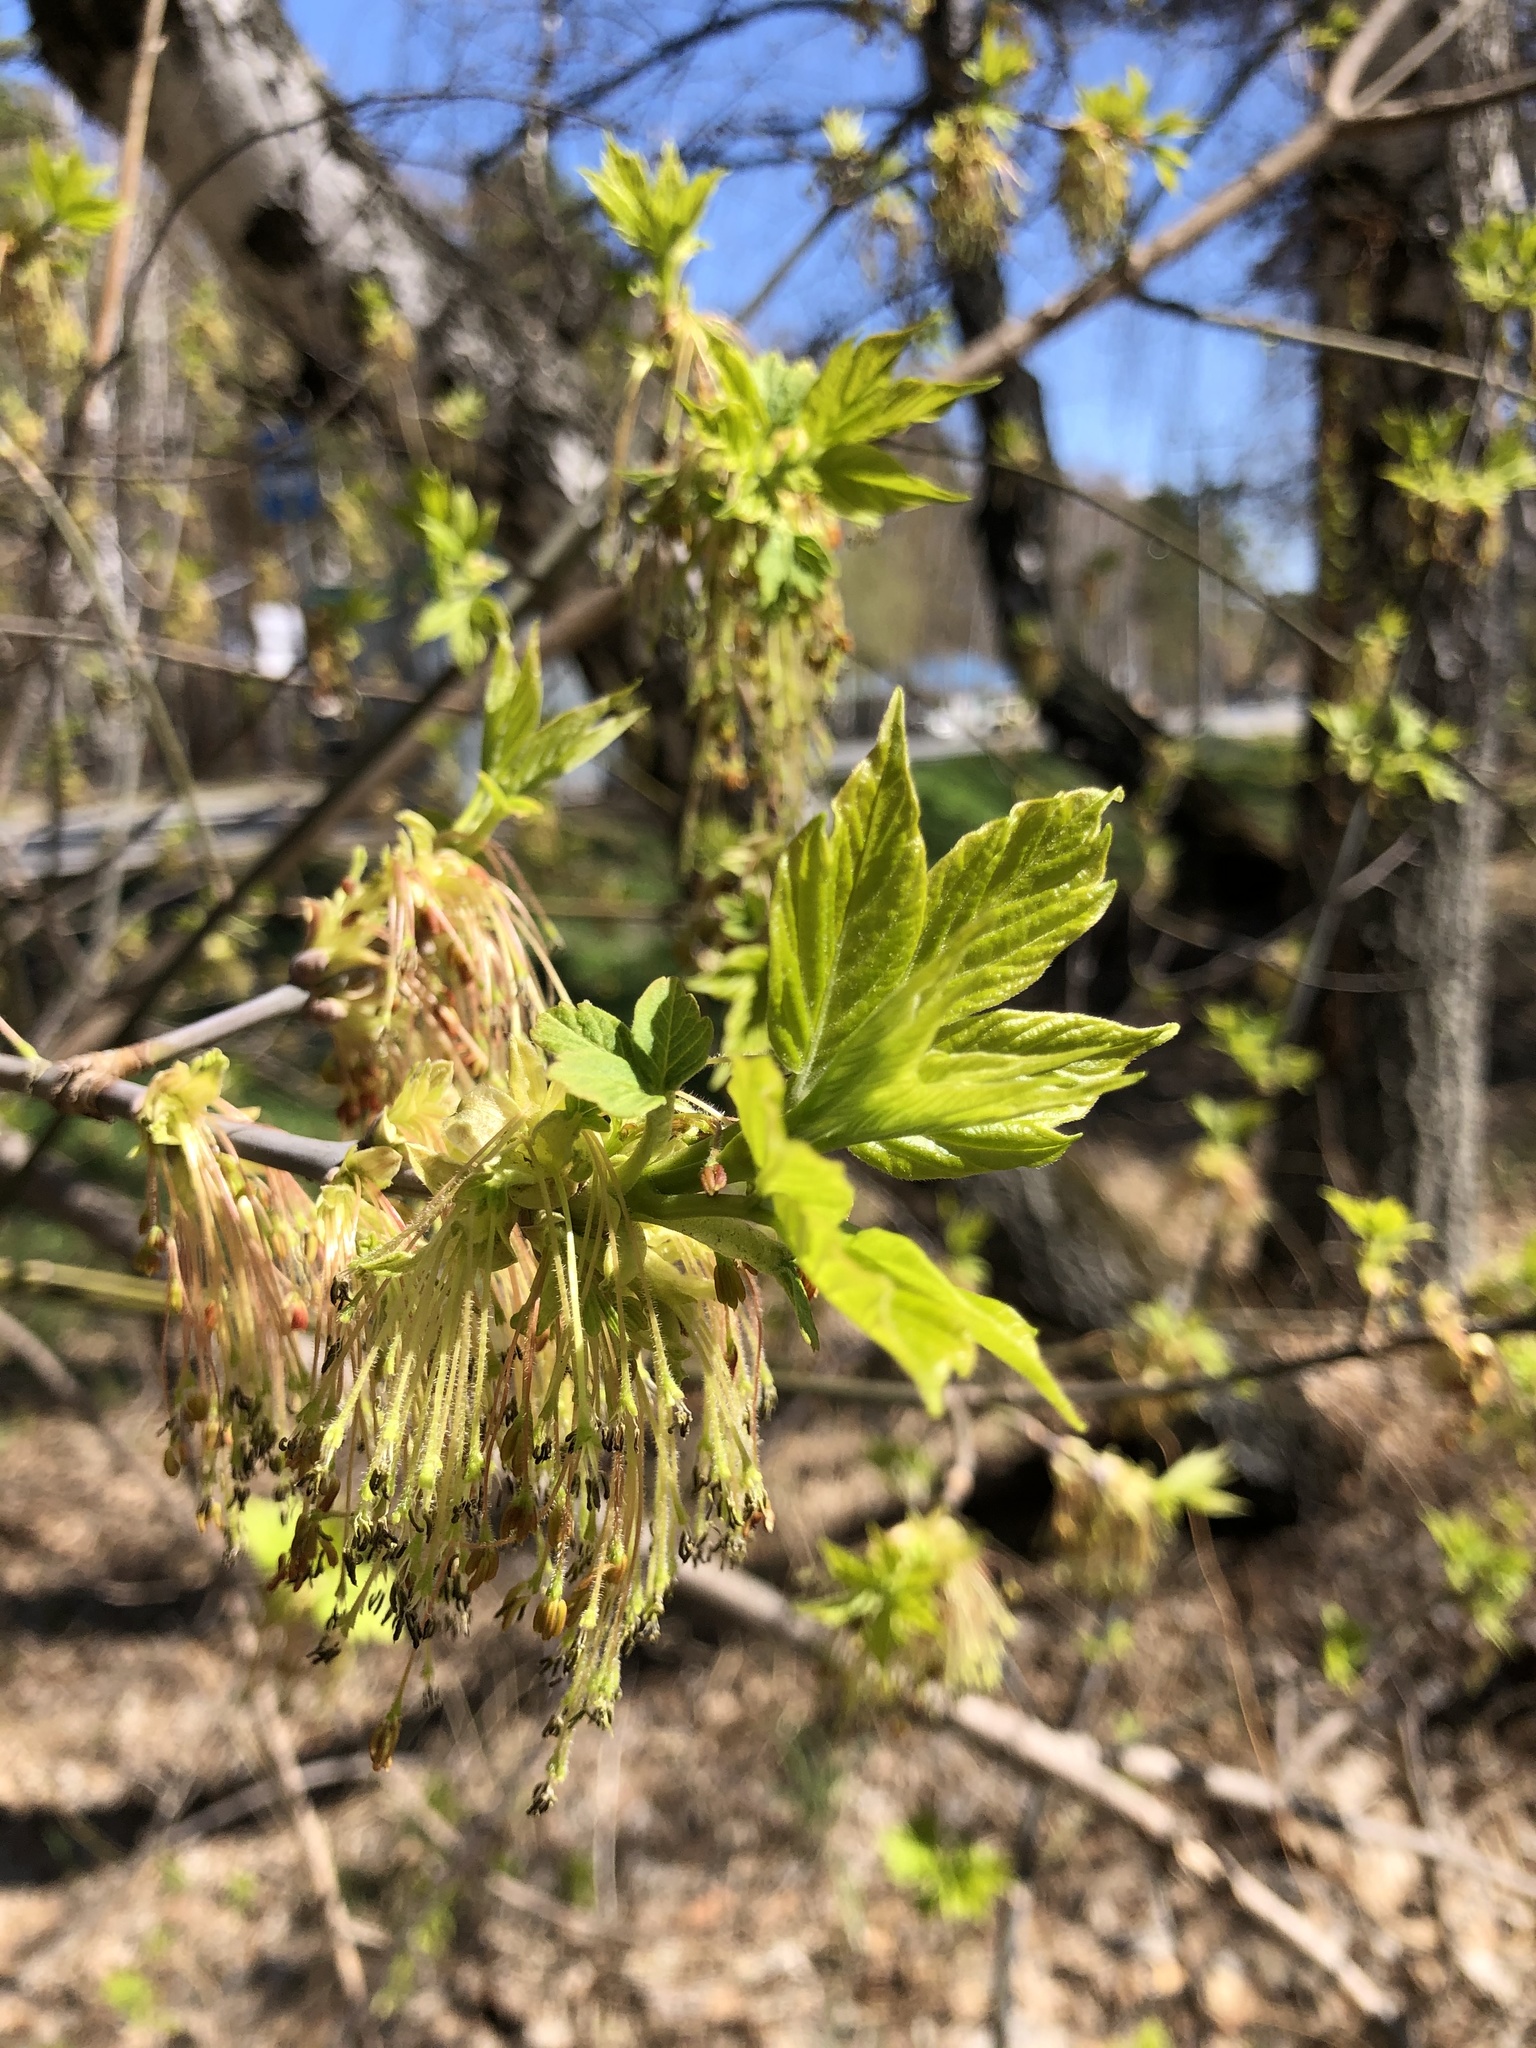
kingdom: Plantae
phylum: Tracheophyta
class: Magnoliopsida
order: Sapindales
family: Sapindaceae
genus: Acer
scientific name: Acer negundo
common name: Ashleaf maple
